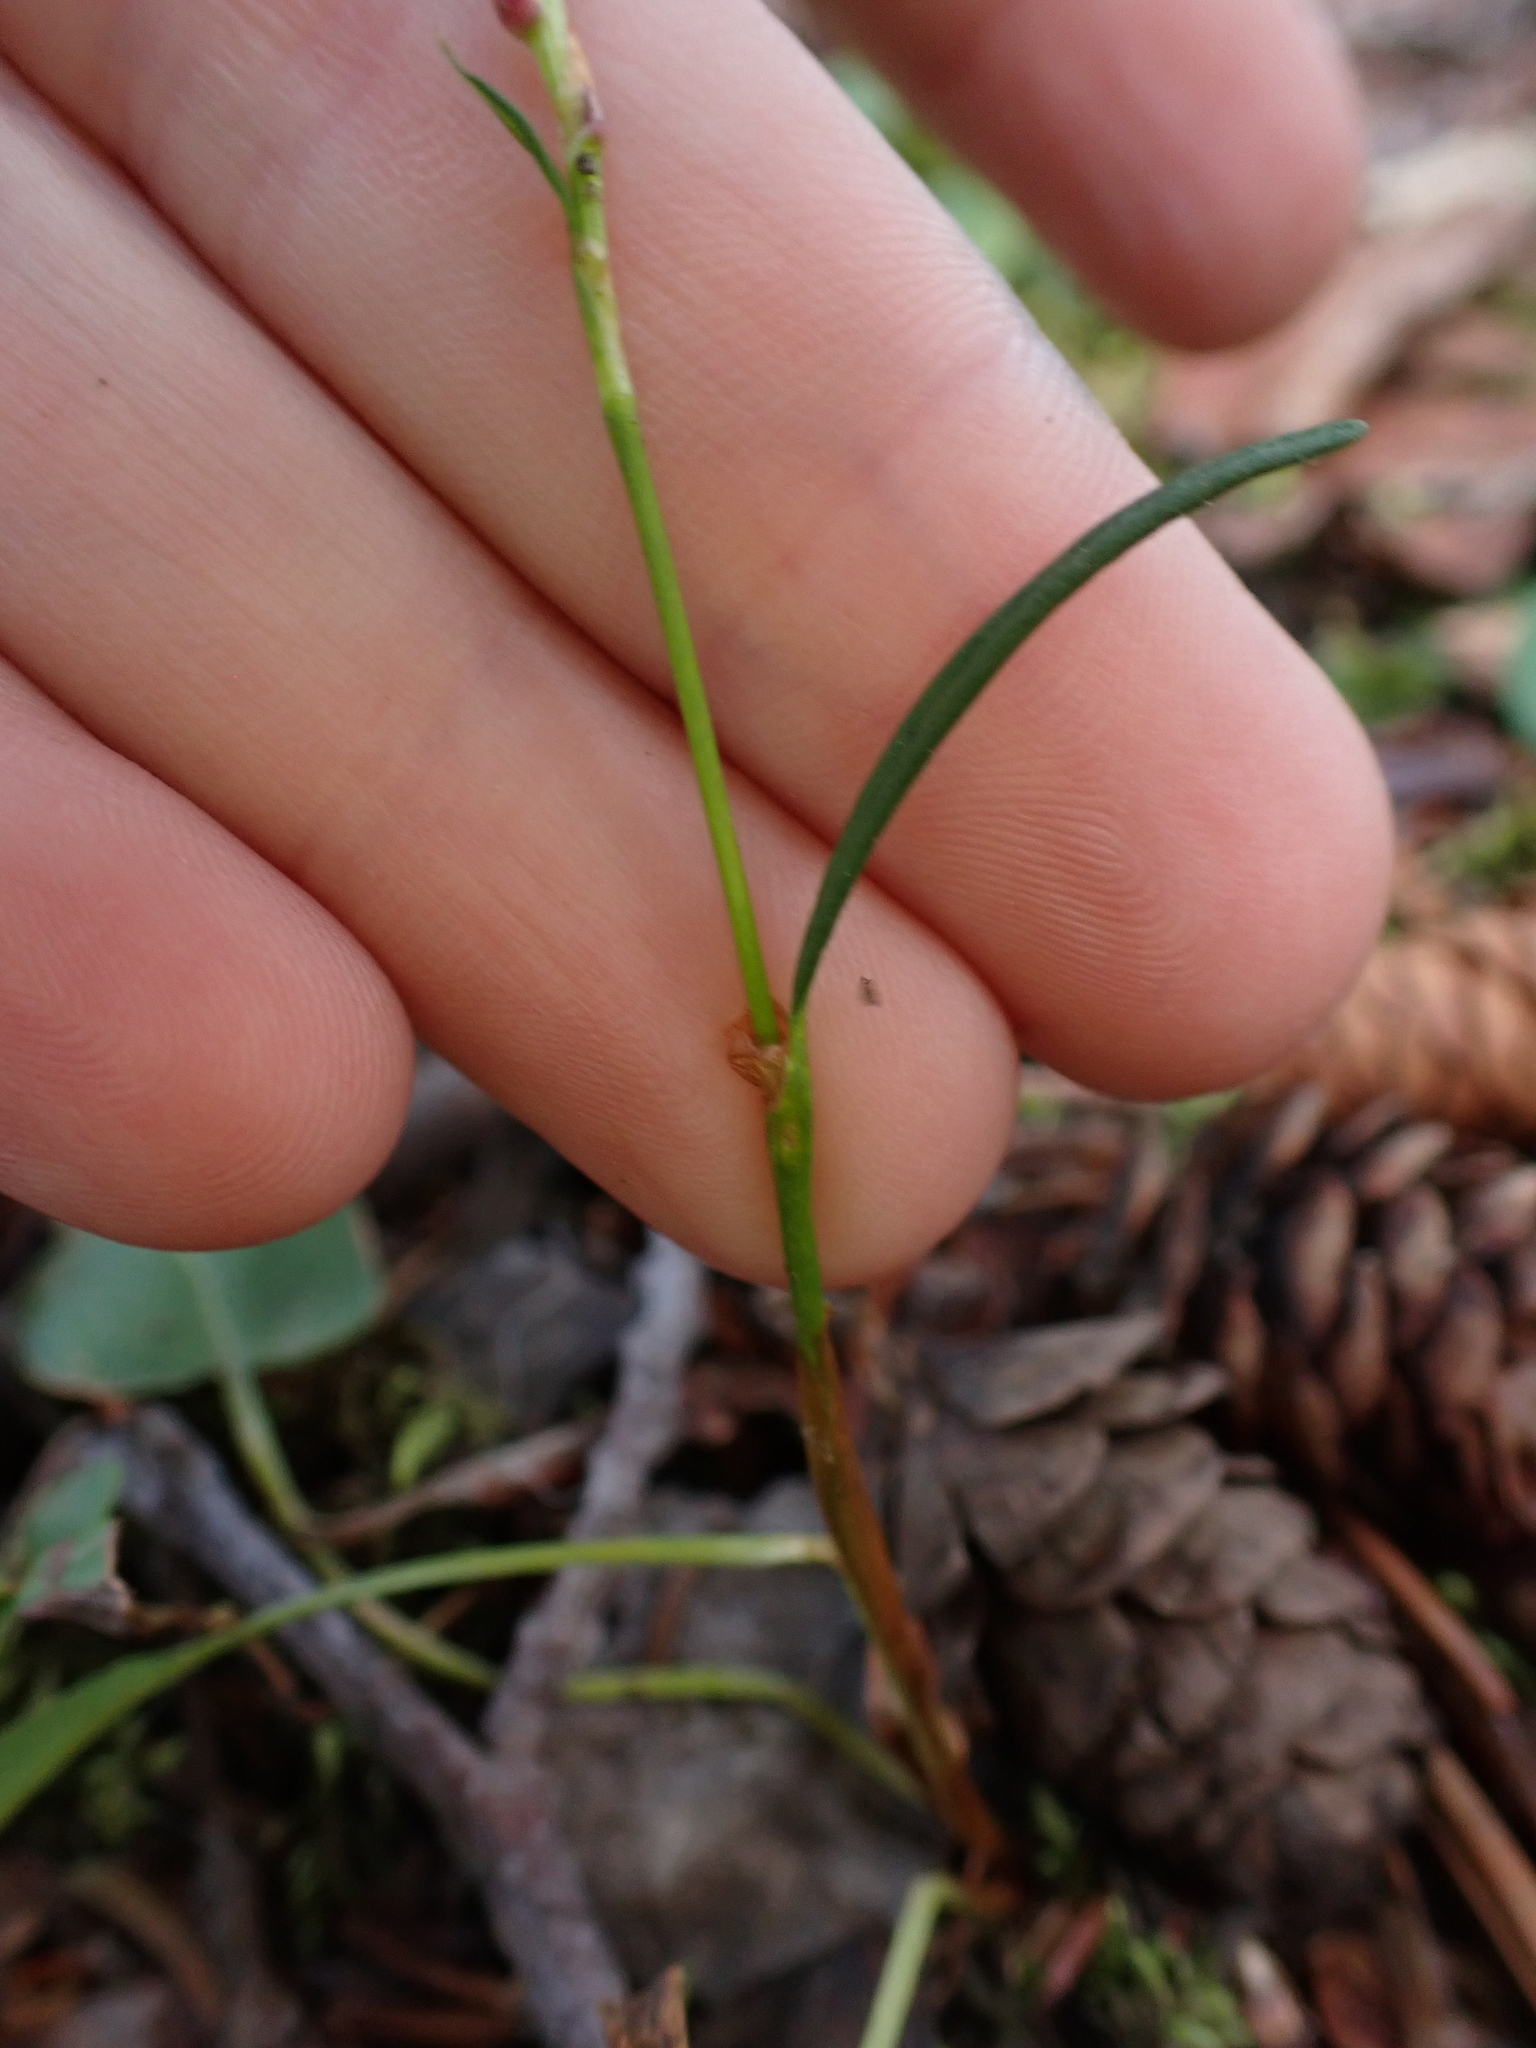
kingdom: Plantae
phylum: Tracheophyta
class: Magnoliopsida
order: Caryophyllales
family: Polygonaceae
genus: Bistorta
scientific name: Bistorta vivipara
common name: Alpine bistort
